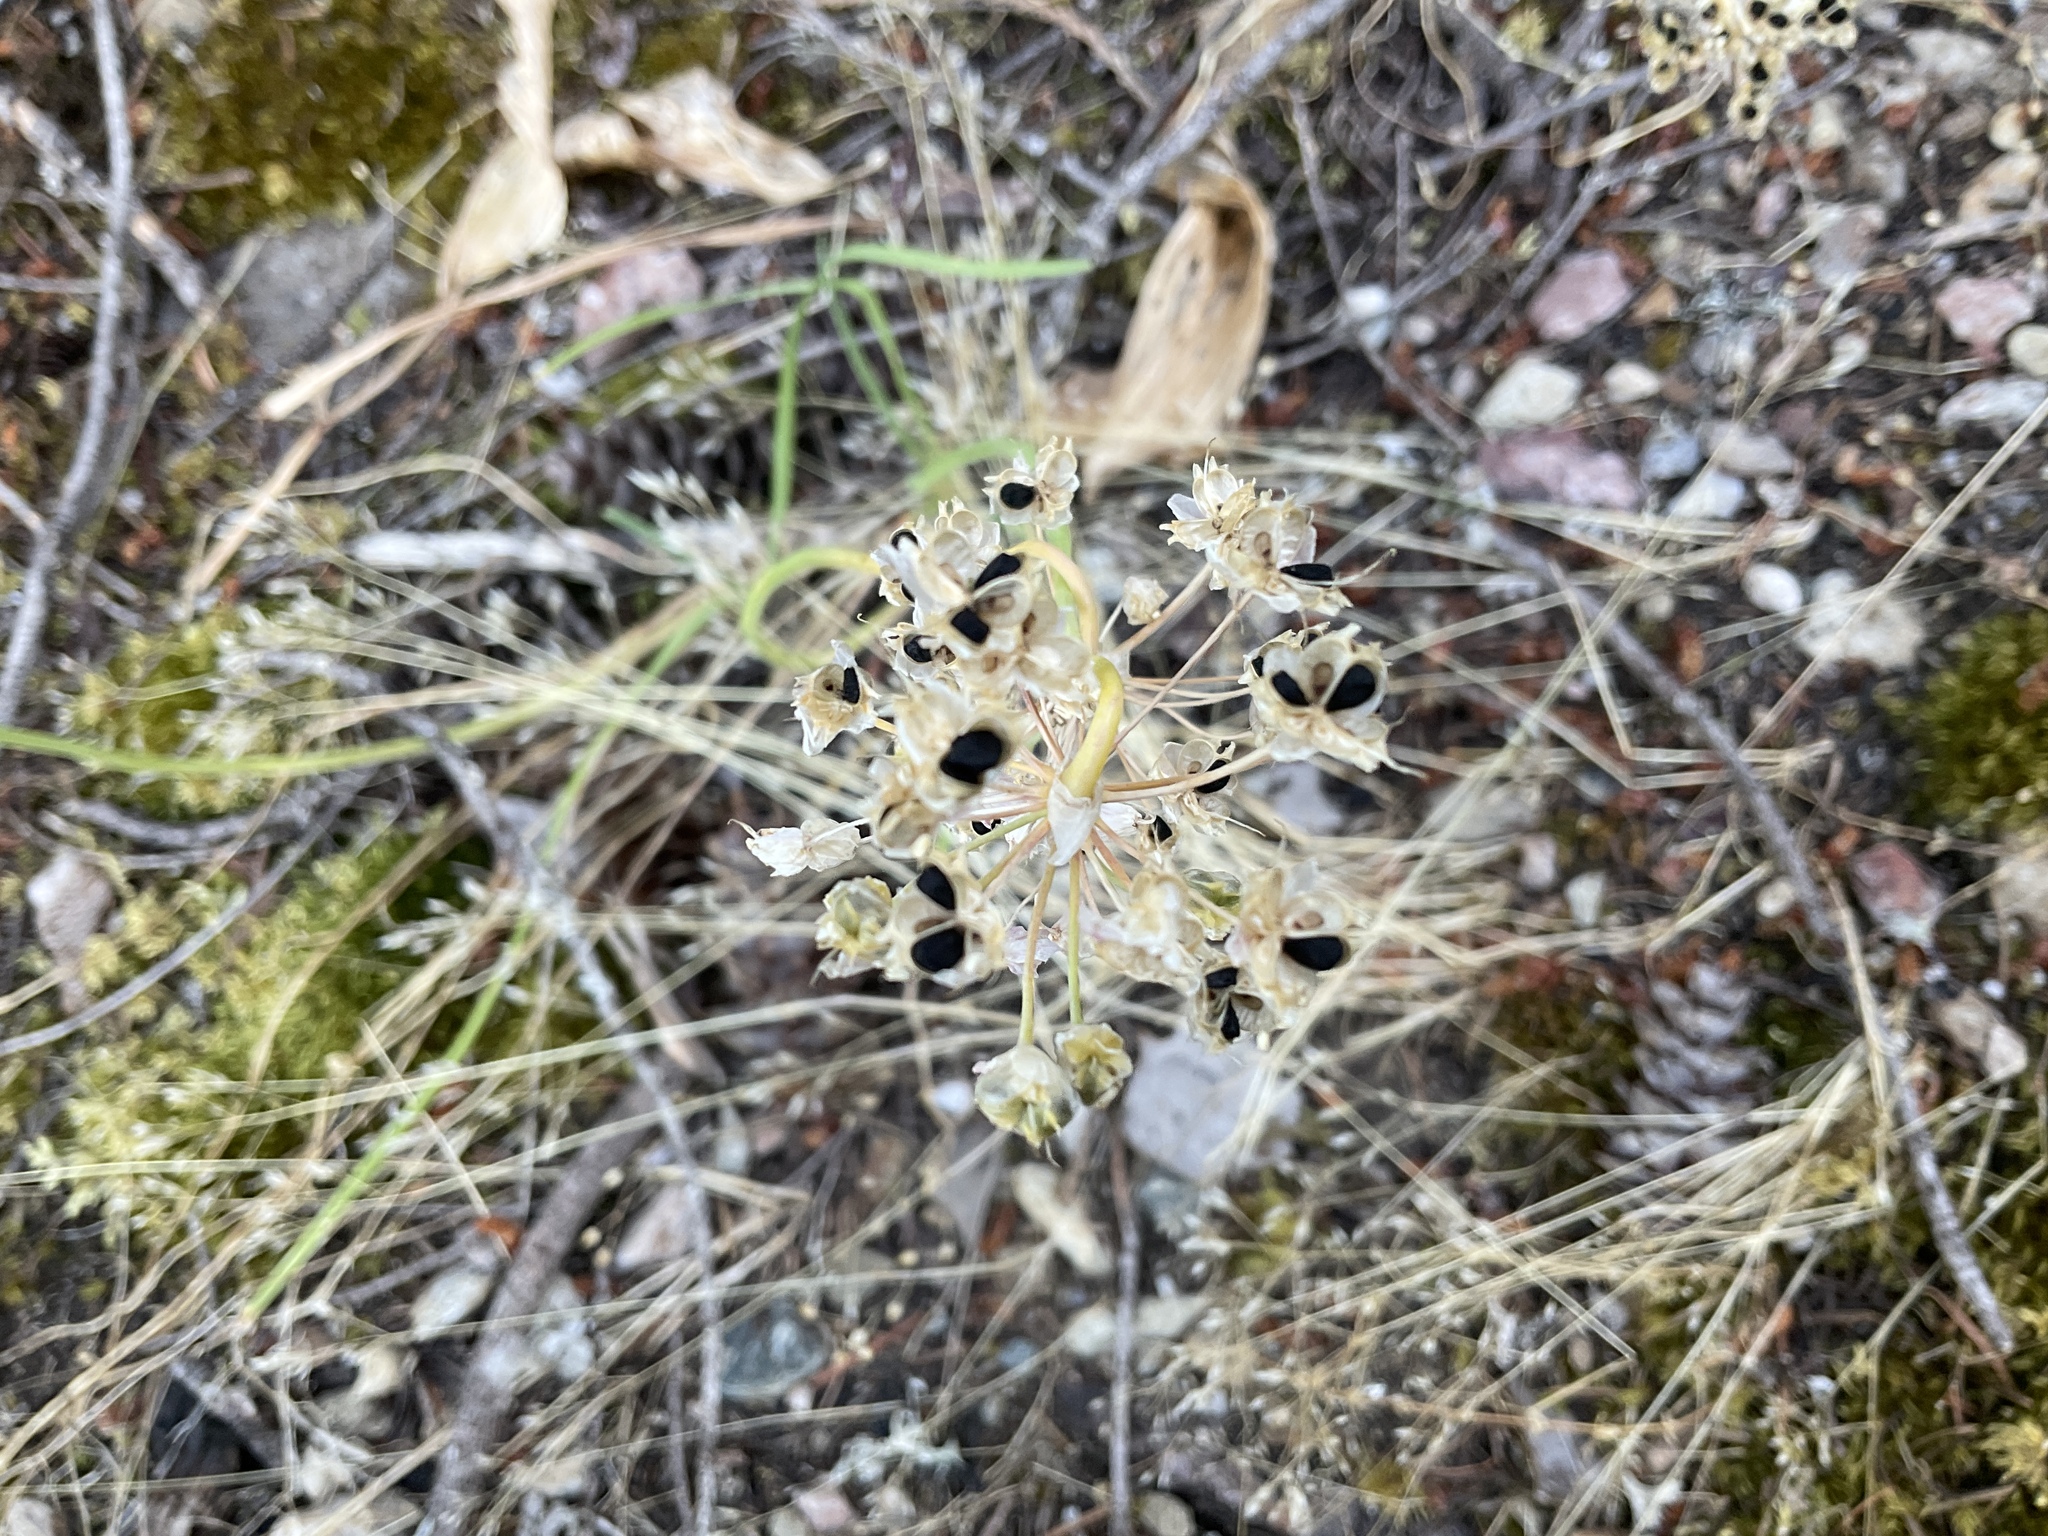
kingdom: Plantae
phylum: Tracheophyta
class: Liliopsida
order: Asparagales
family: Amaryllidaceae
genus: Allium
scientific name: Allium cernuum
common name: Nodding onion
